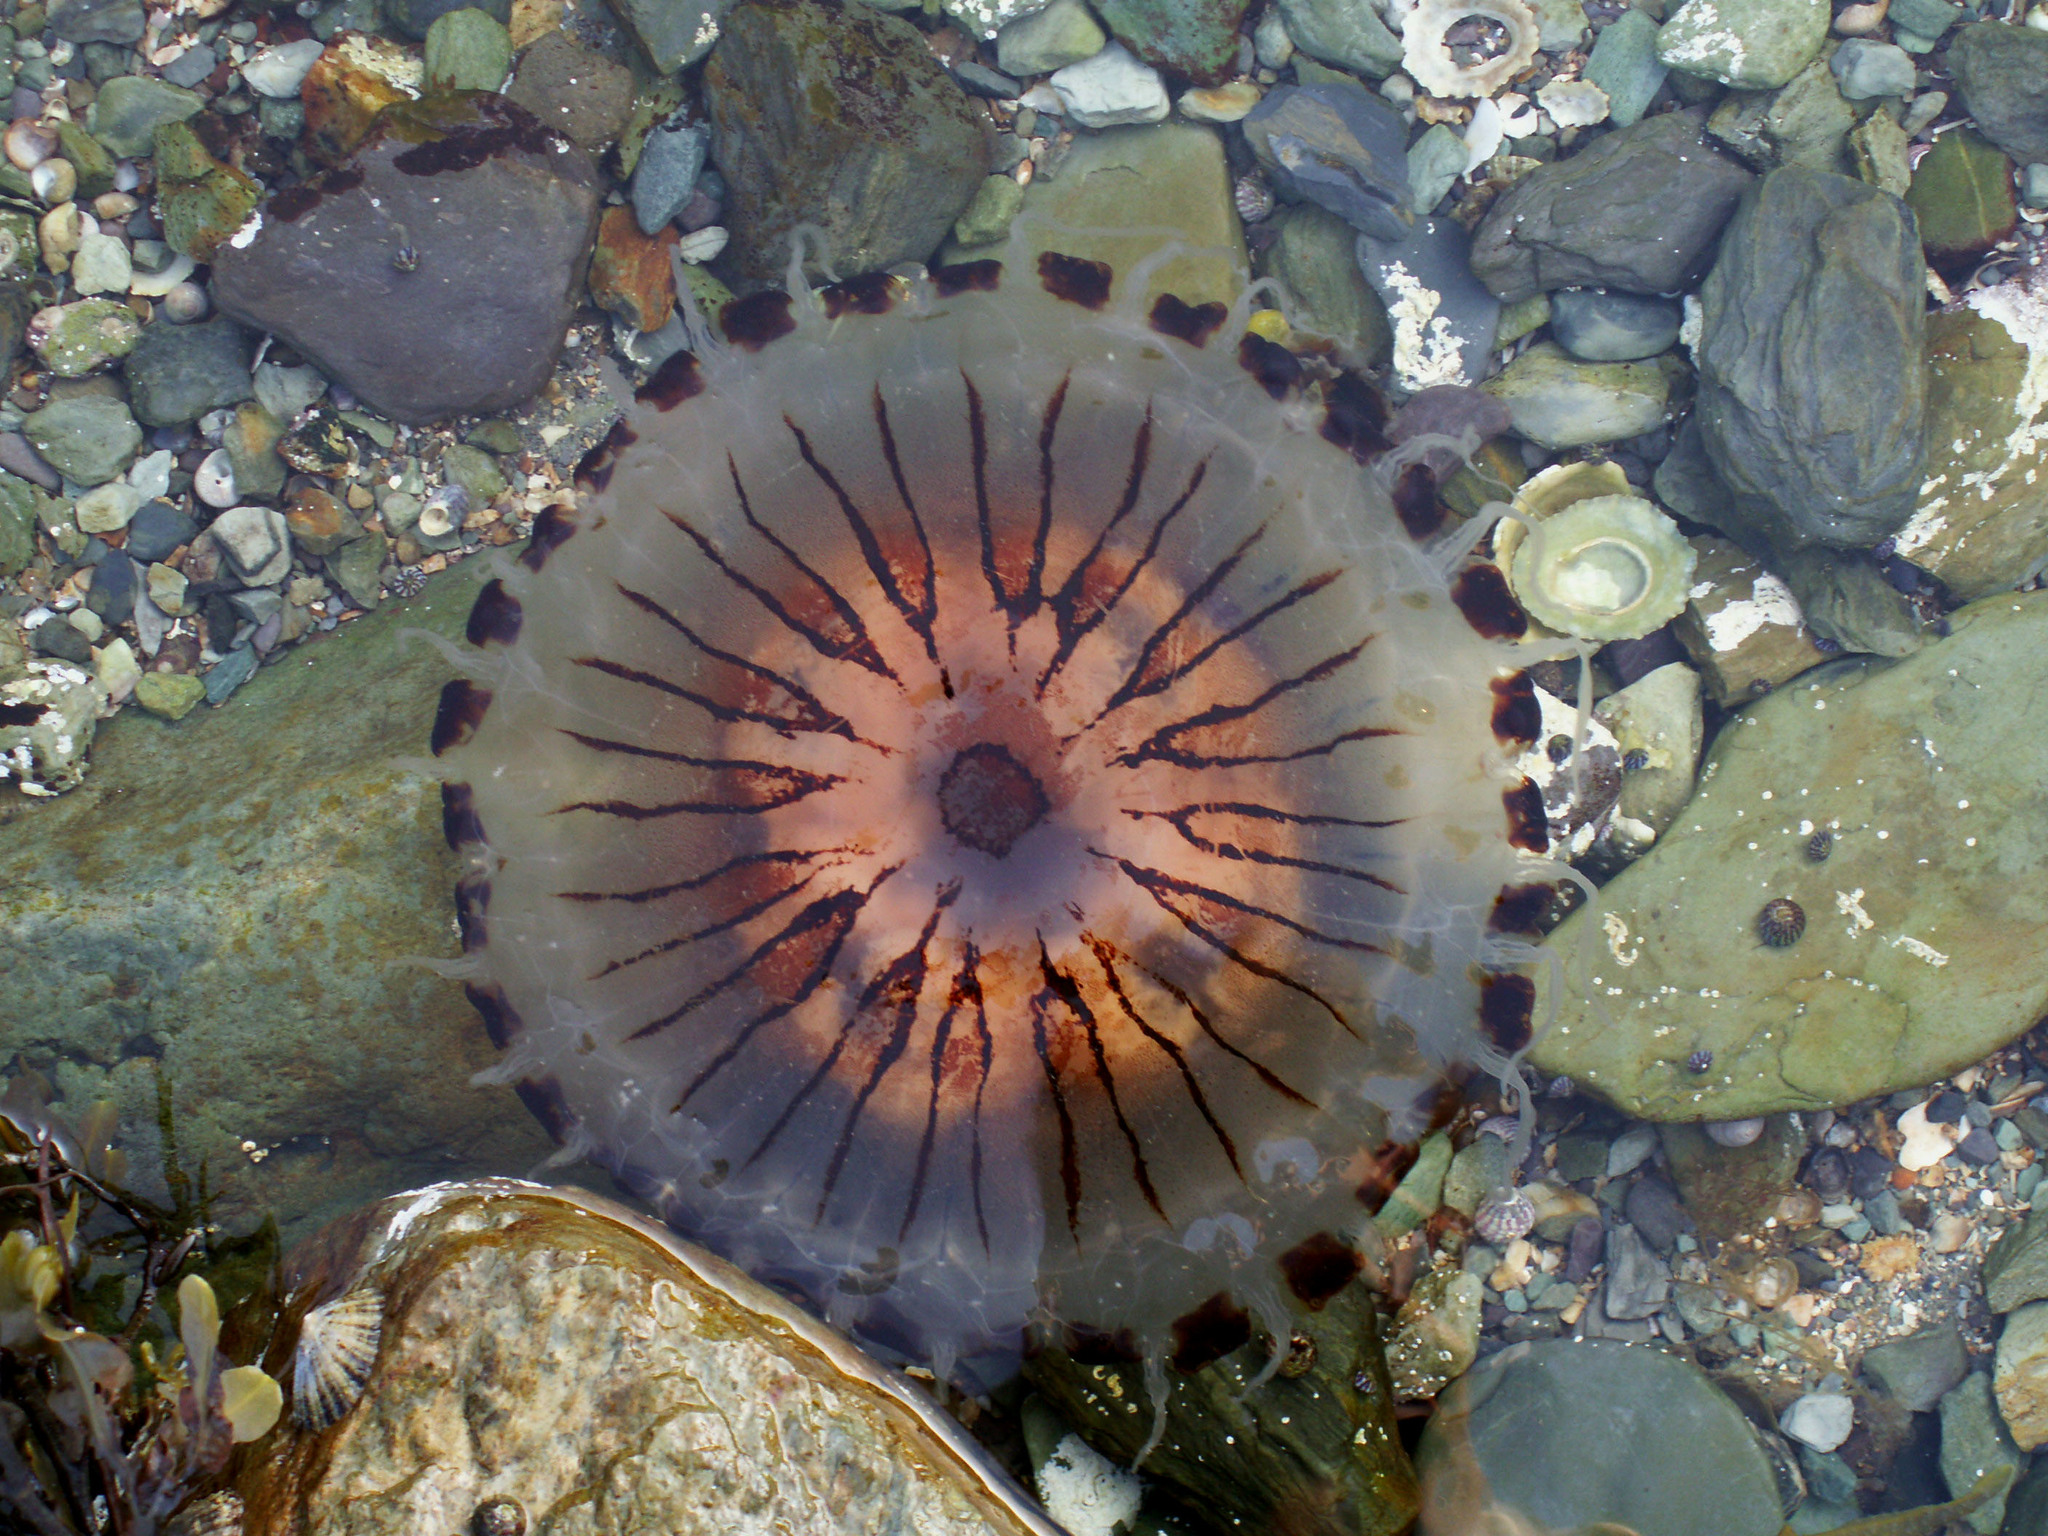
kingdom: Animalia
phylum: Cnidaria
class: Scyphozoa
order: Semaeostomeae
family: Pelagiidae
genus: Chrysaora
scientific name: Chrysaora hysoscella
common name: Compass jellyfish
